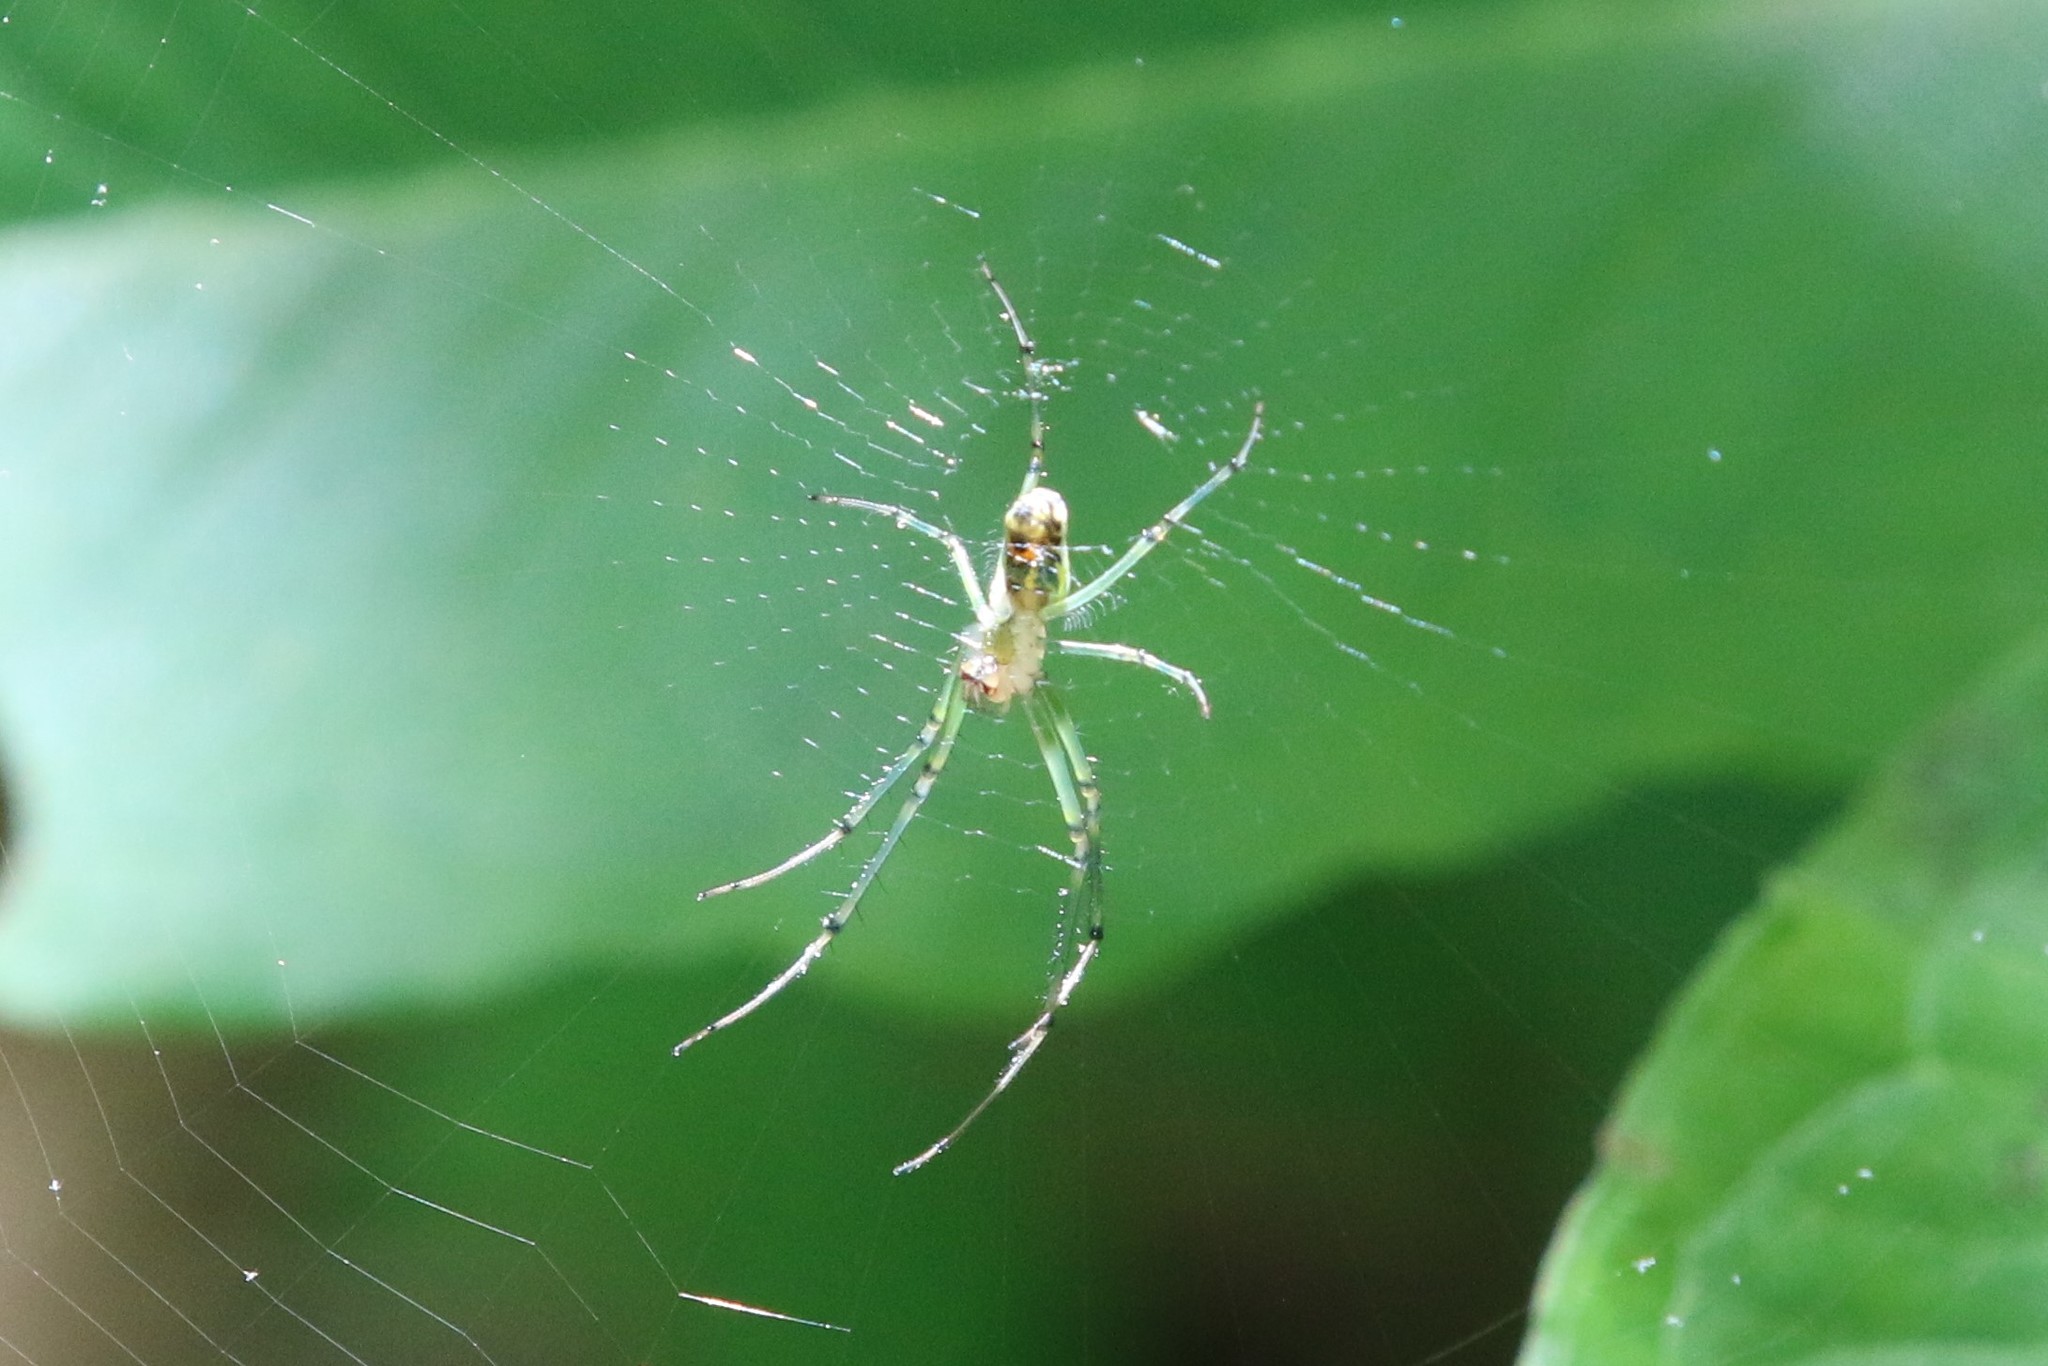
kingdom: Animalia
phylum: Arthropoda
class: Arachnida
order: Araneae
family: Tetragnathidae
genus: Leucauge
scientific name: Leucauge venusta
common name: Longjawed orb weavers
